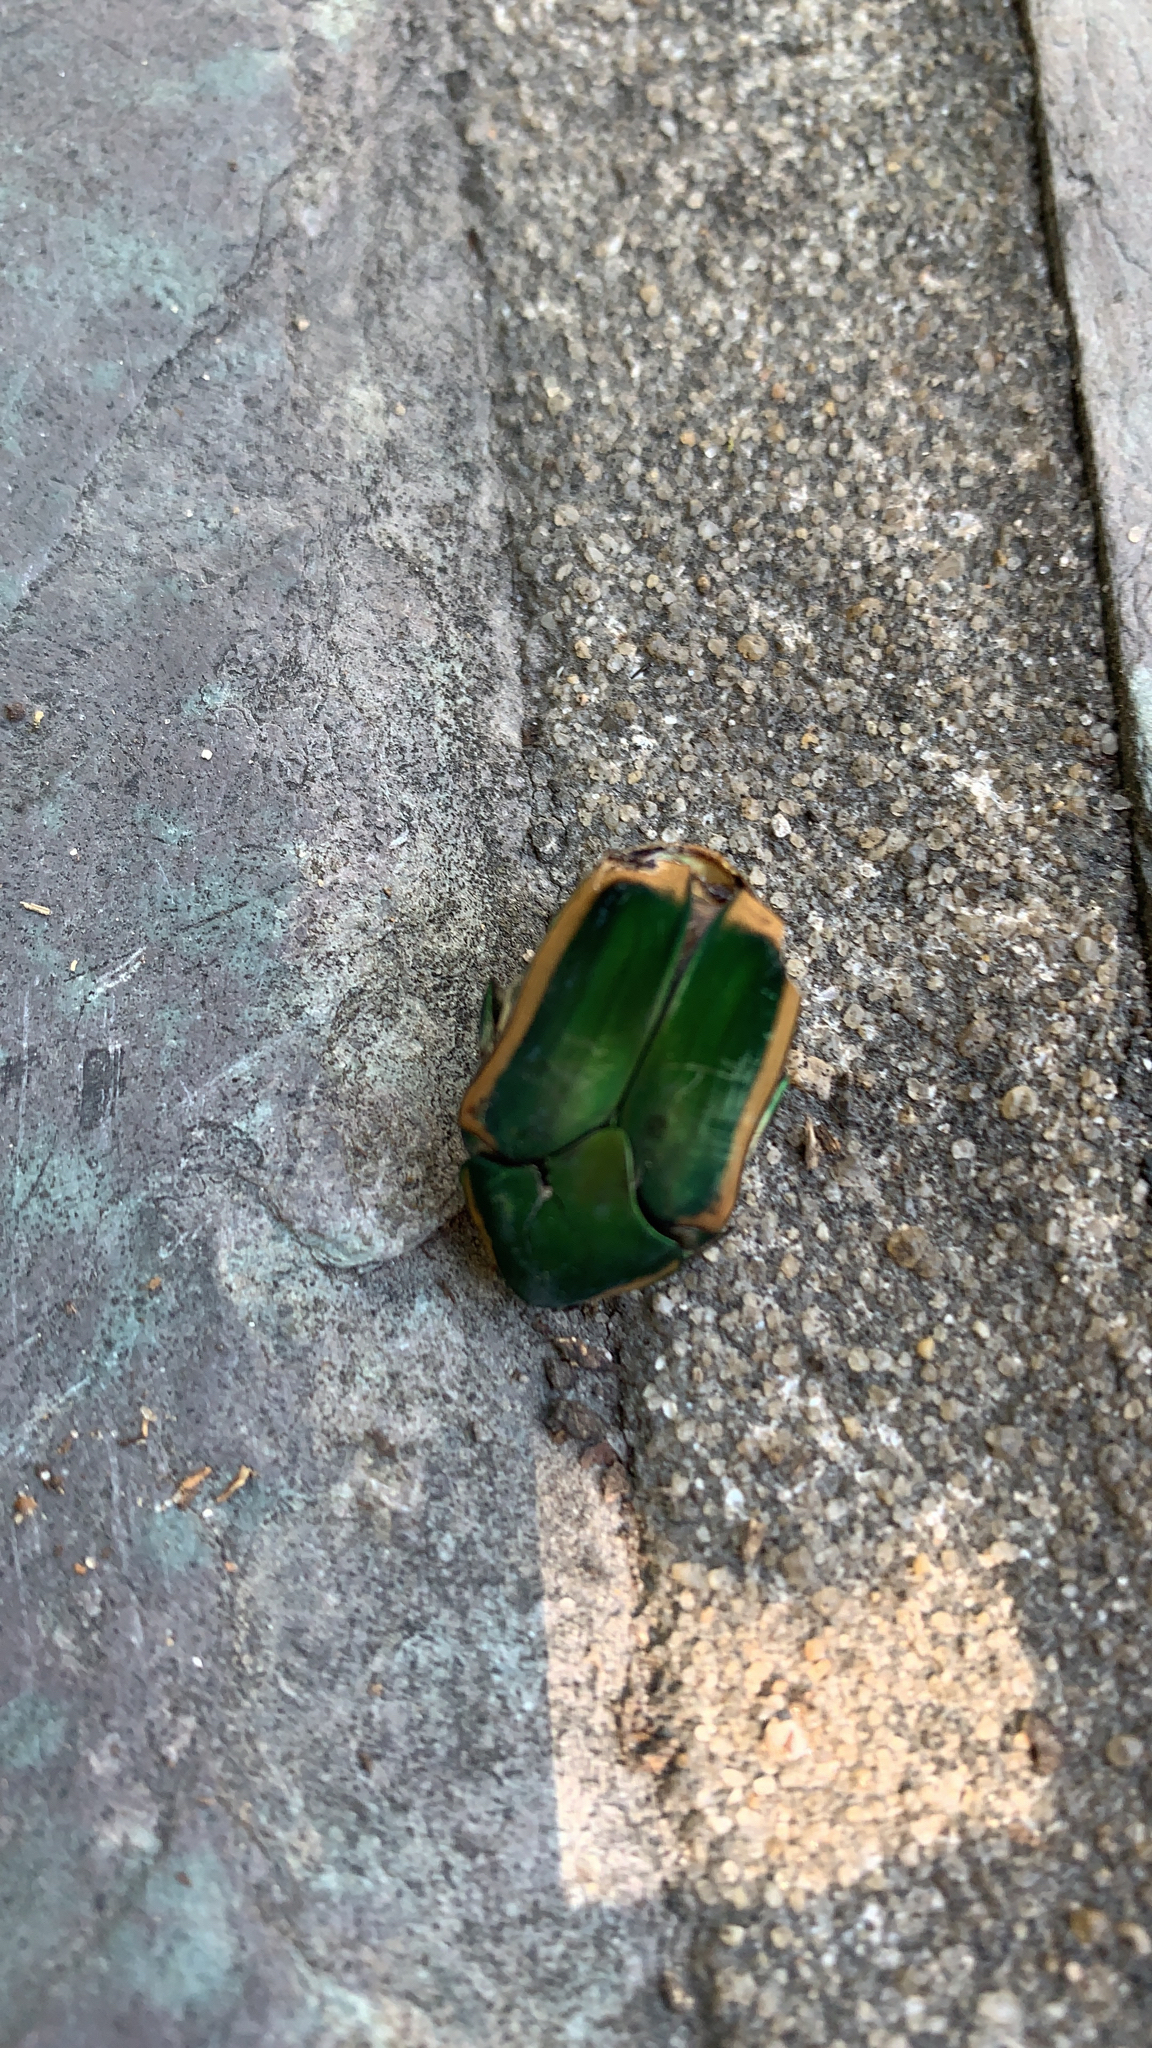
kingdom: Animalia
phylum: Arthropoda
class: Insecta
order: Coleoptera
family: Scarabaeidae
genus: Cotinis
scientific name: Cotinis nitida
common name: Common green june beetle
